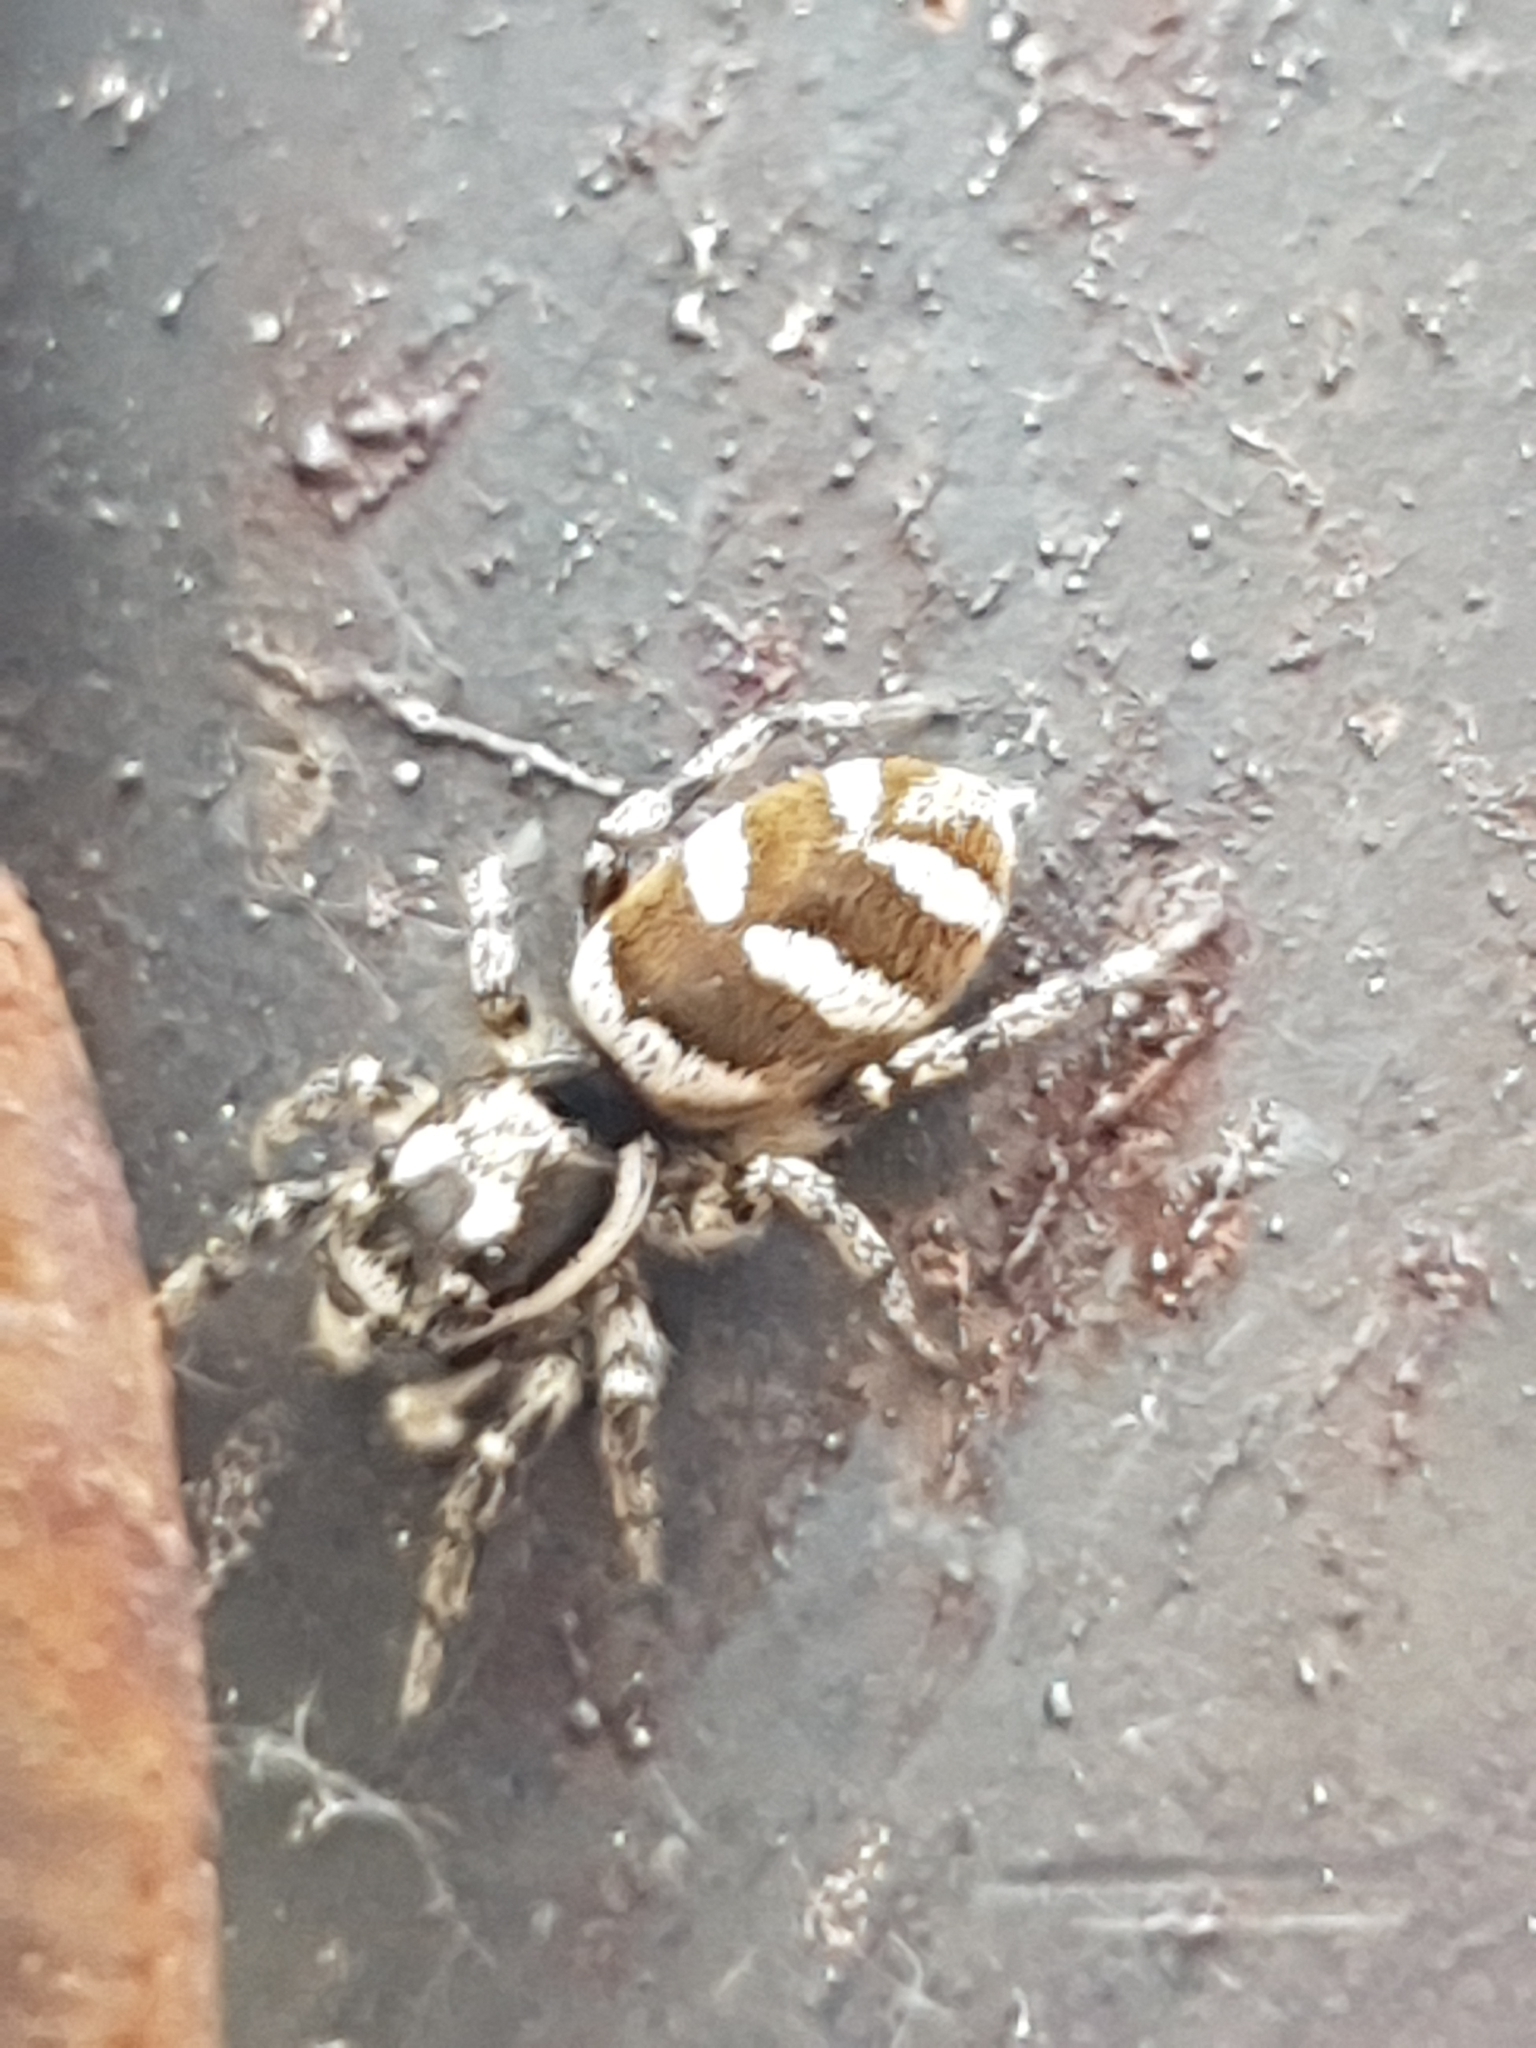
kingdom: Animalia
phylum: Arthropoda
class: Arachnida
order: Araneae
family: Salticidae
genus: Salticus
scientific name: Salticus scenicus
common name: Zebra jumper
